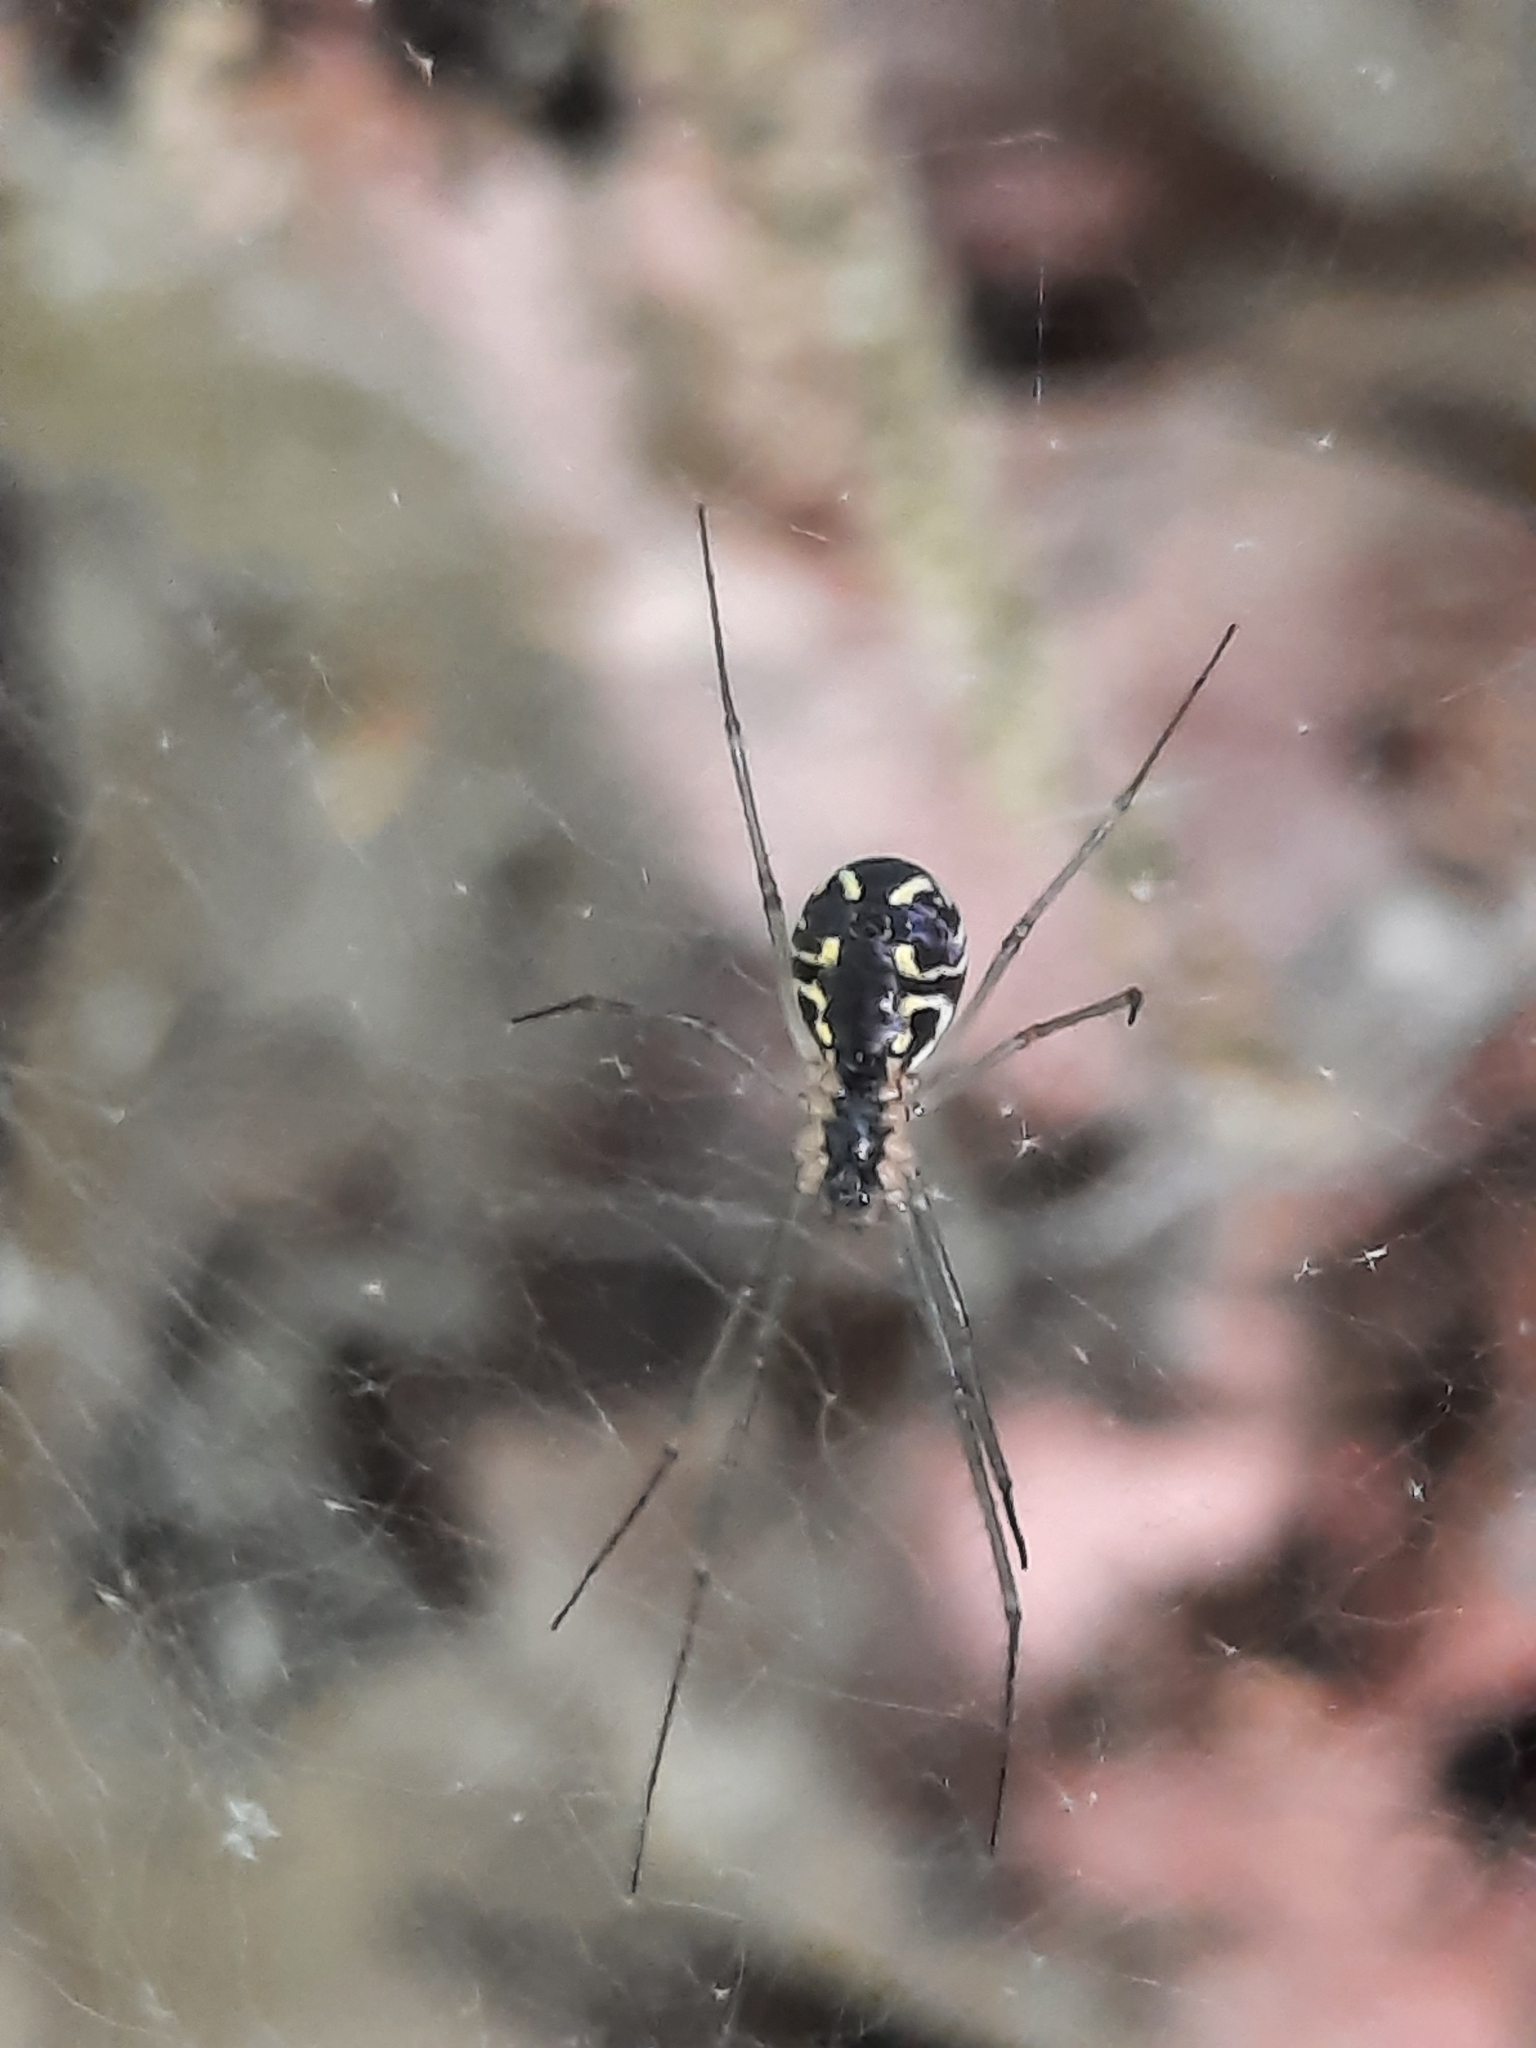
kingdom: Animalia
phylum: Arthropoda
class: Arachnida
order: Araneae
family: Linyphiidae
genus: Neriene
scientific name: Neriene radiata
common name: Filmy dome spider
